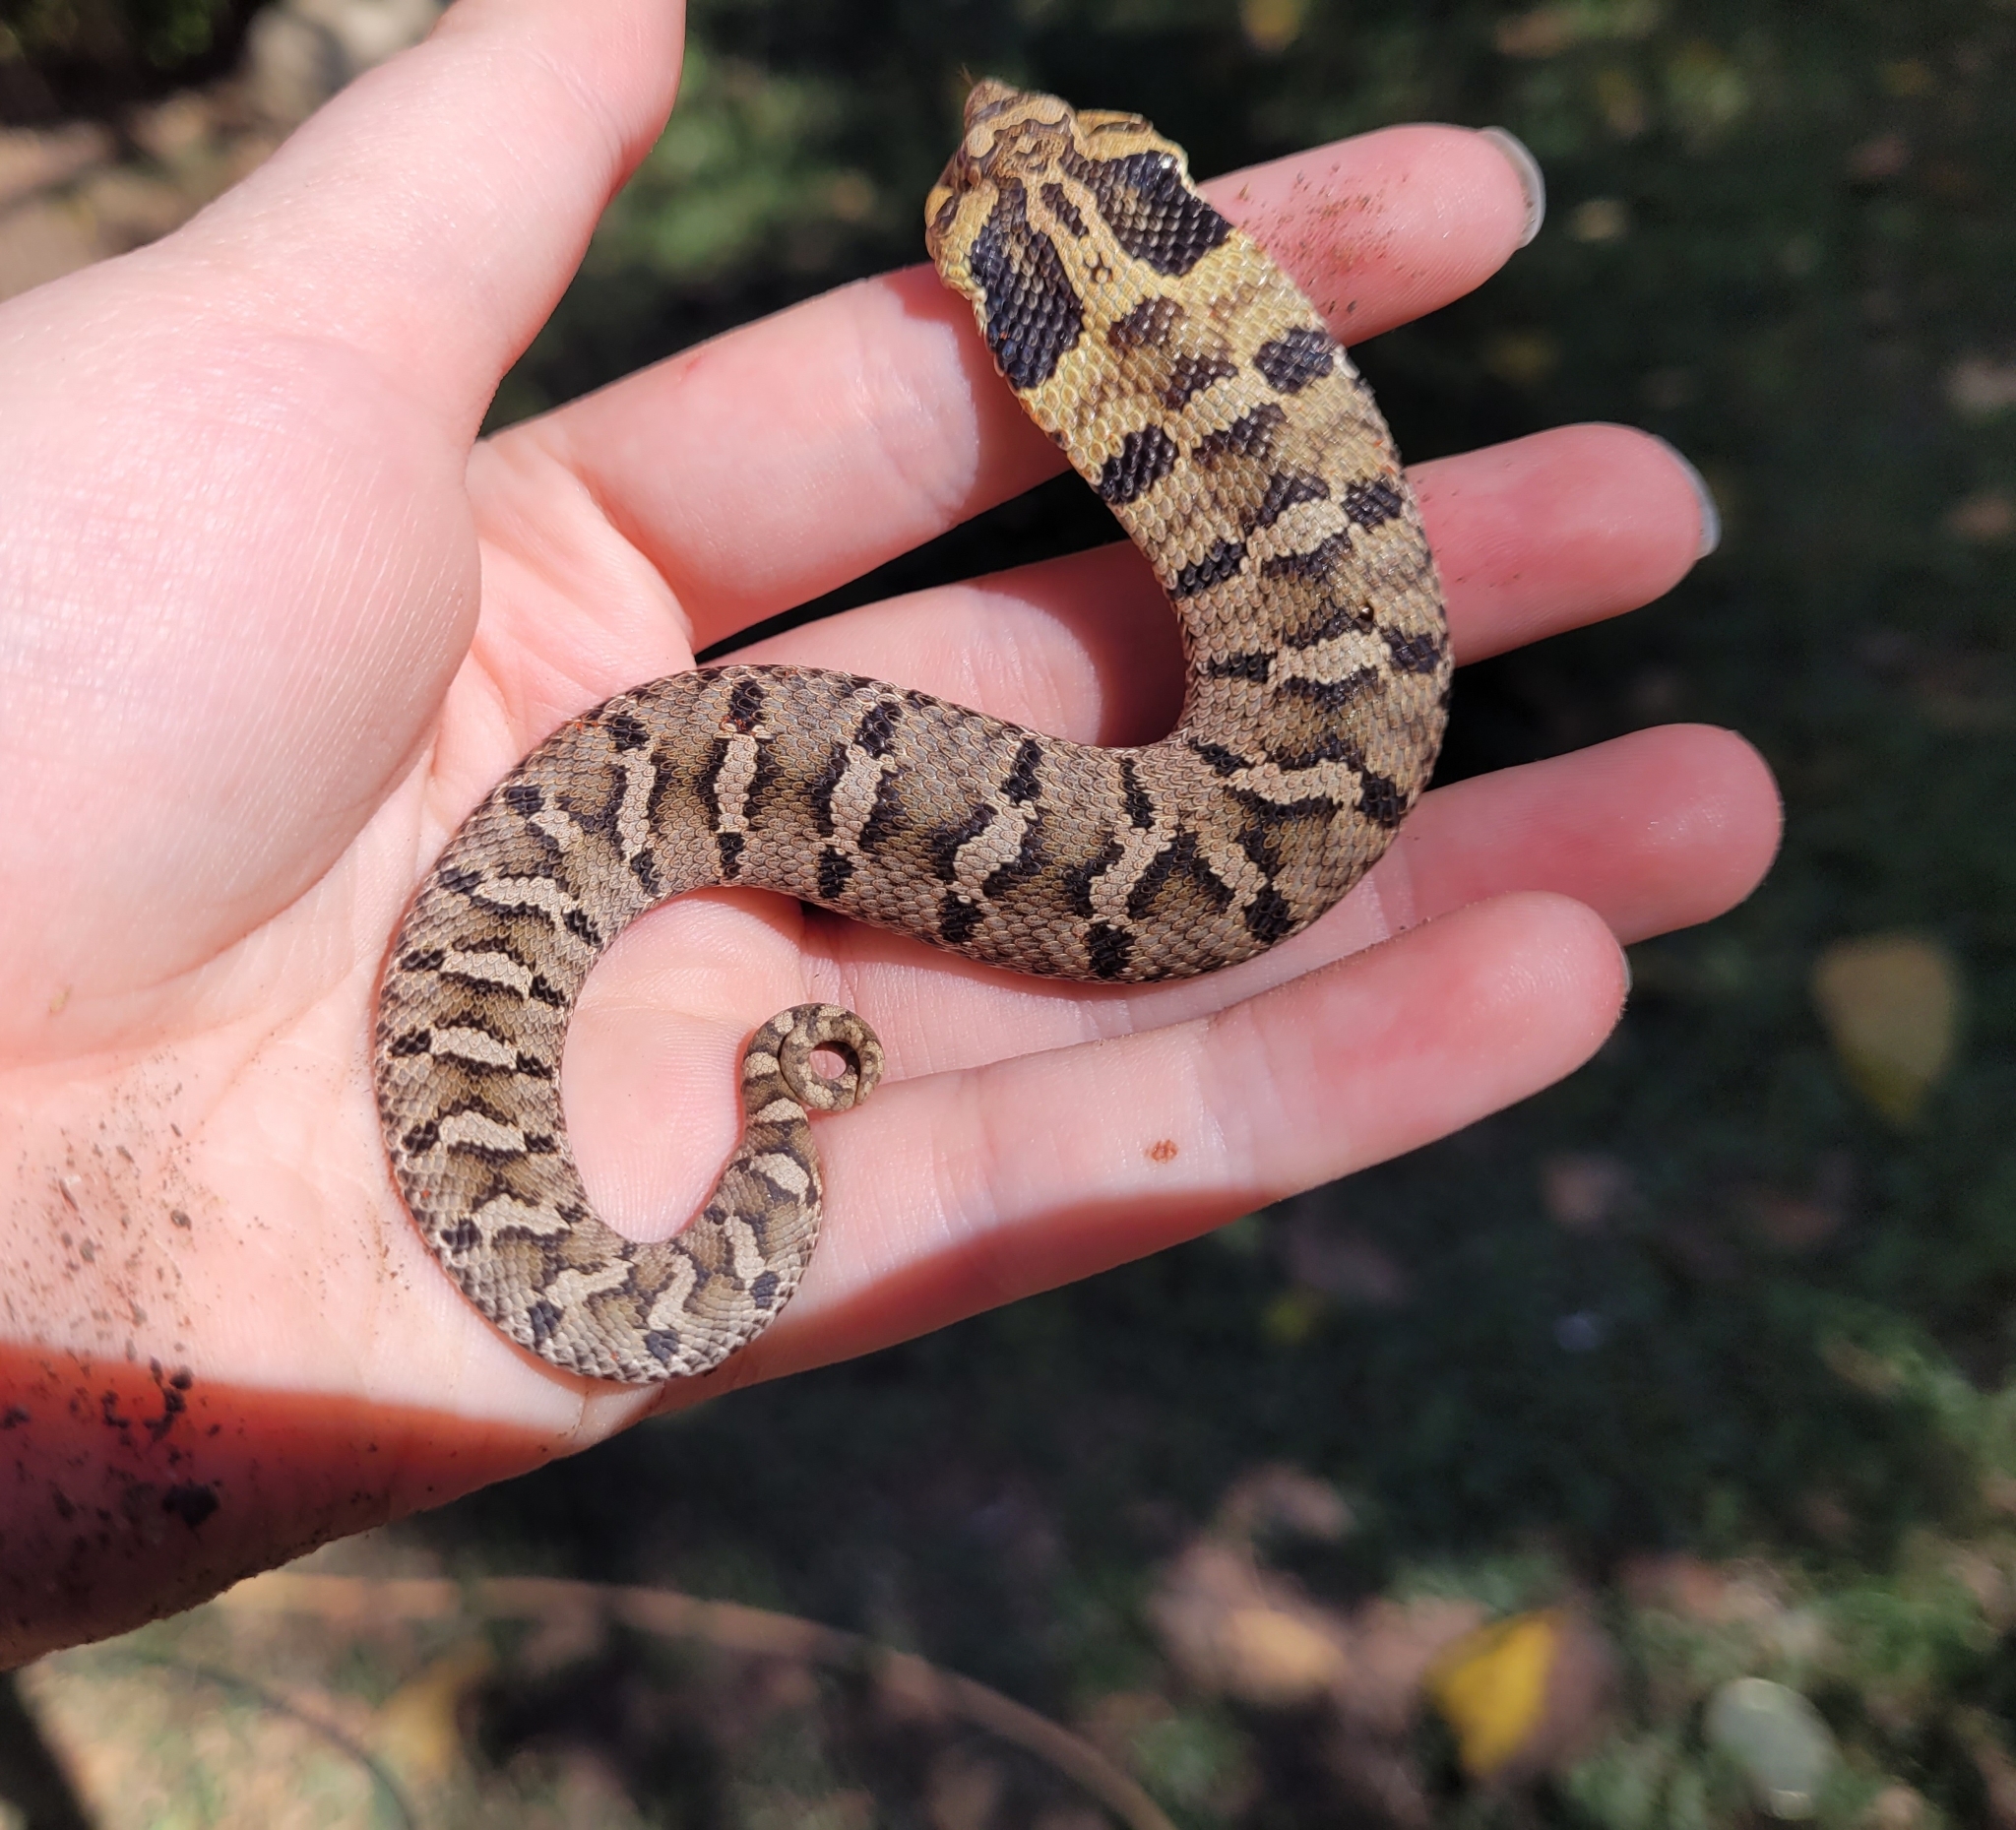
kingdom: Animalia
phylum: Chordata
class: Squamata
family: Colubridae
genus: Heterodon
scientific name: Heterodon platirhinos
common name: Eastern hognose snake
